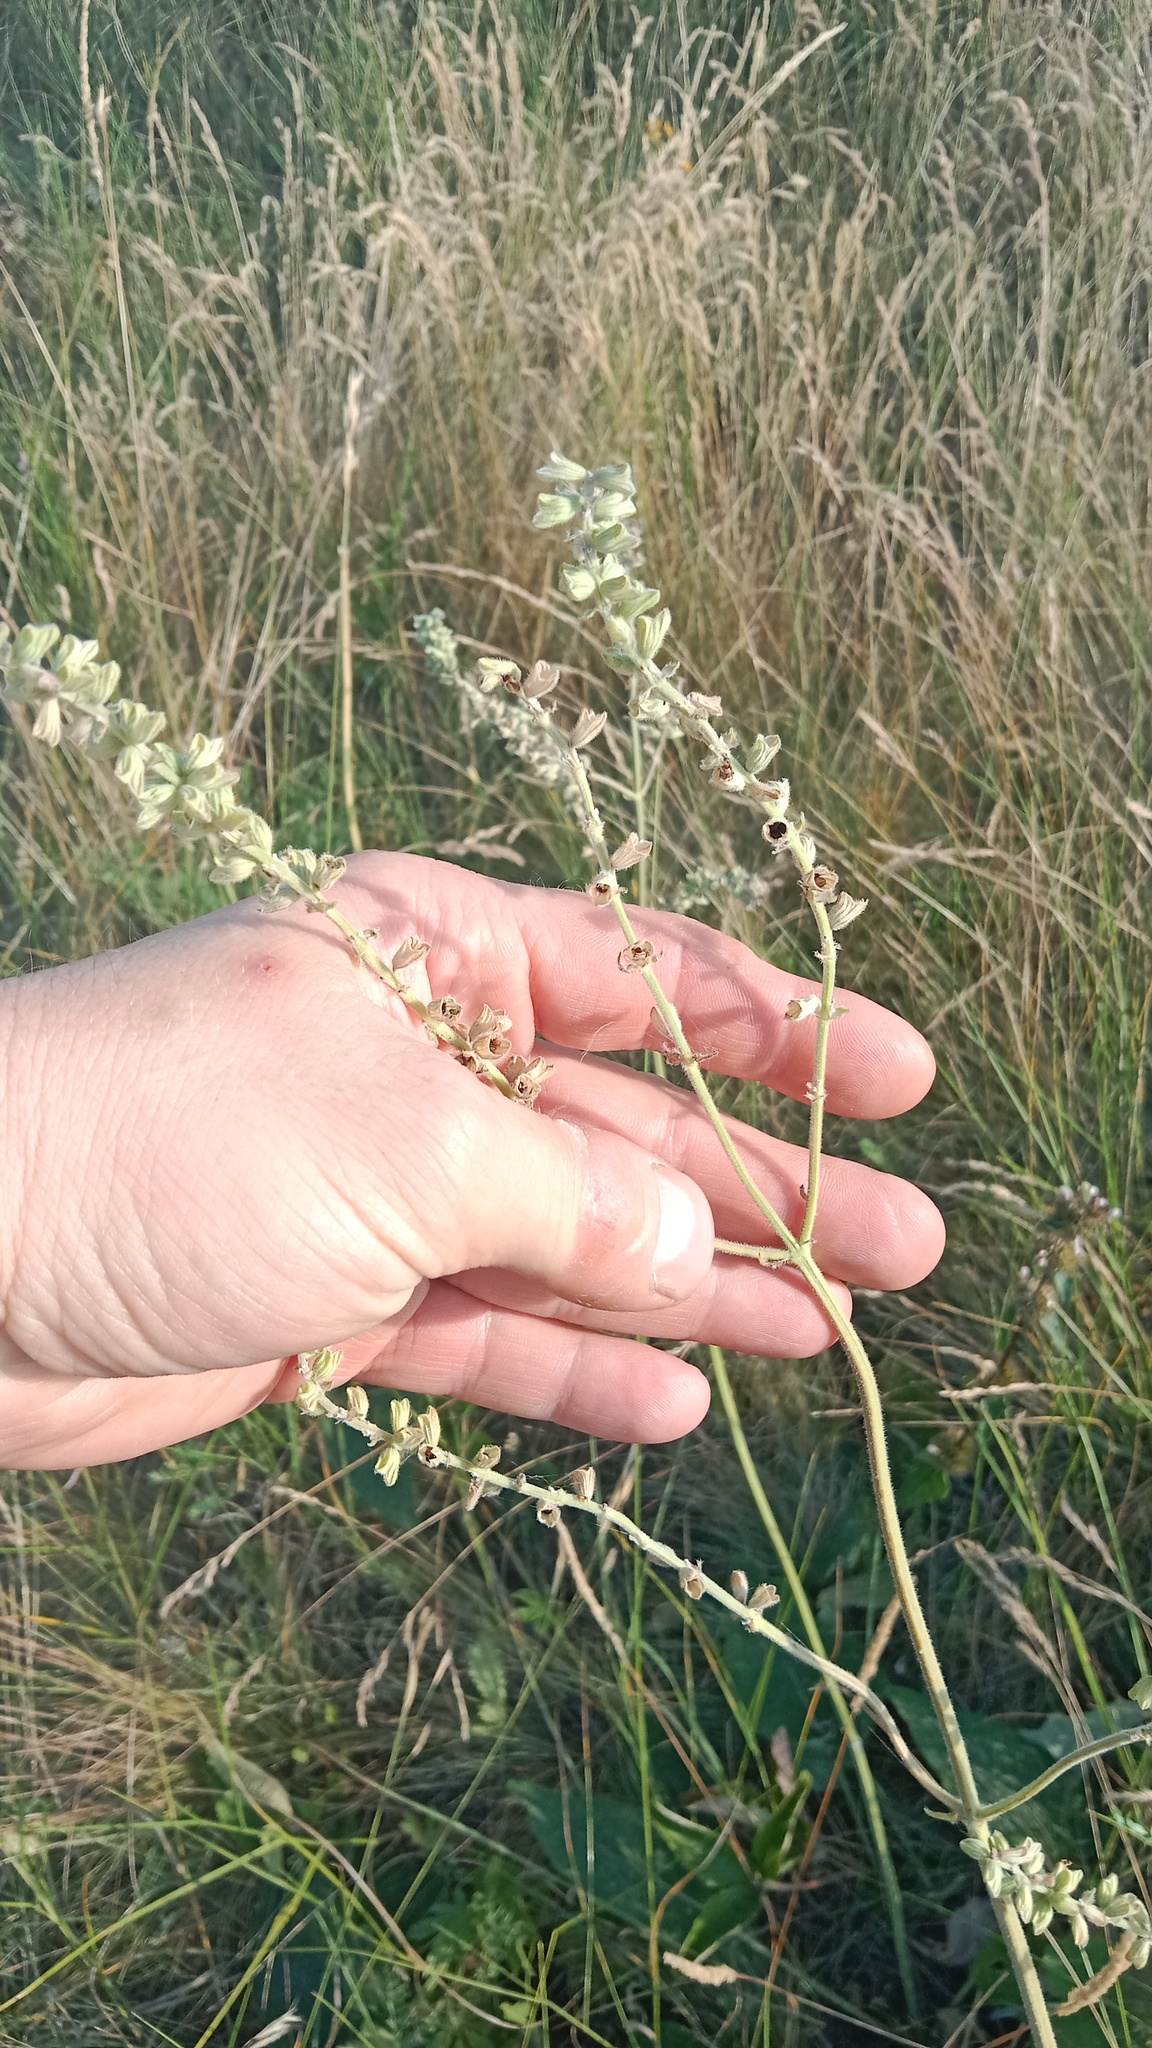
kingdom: Plantae
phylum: Tracheophyta
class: Magnoliopsida
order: Lamiales
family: Lamiaceae
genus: Salvia
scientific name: Salvia nutans
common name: Nodding sage
